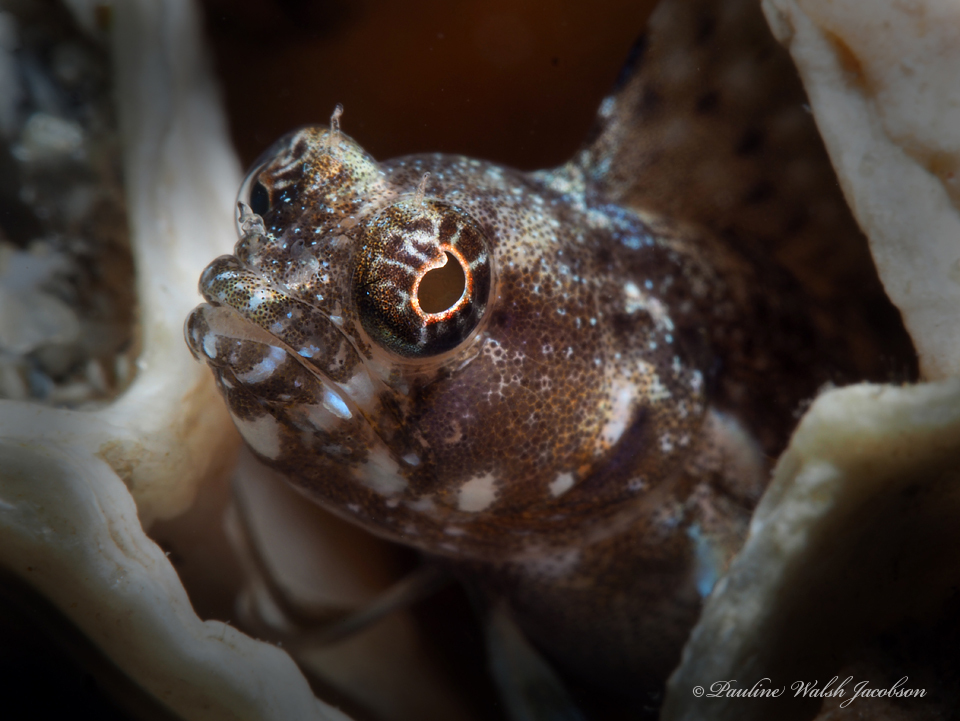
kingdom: Animalia
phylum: Chordata
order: Perciformes
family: Chaenopsidae
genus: Emblemaria
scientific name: Emblemaria pandionis
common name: Sailfin blenny
